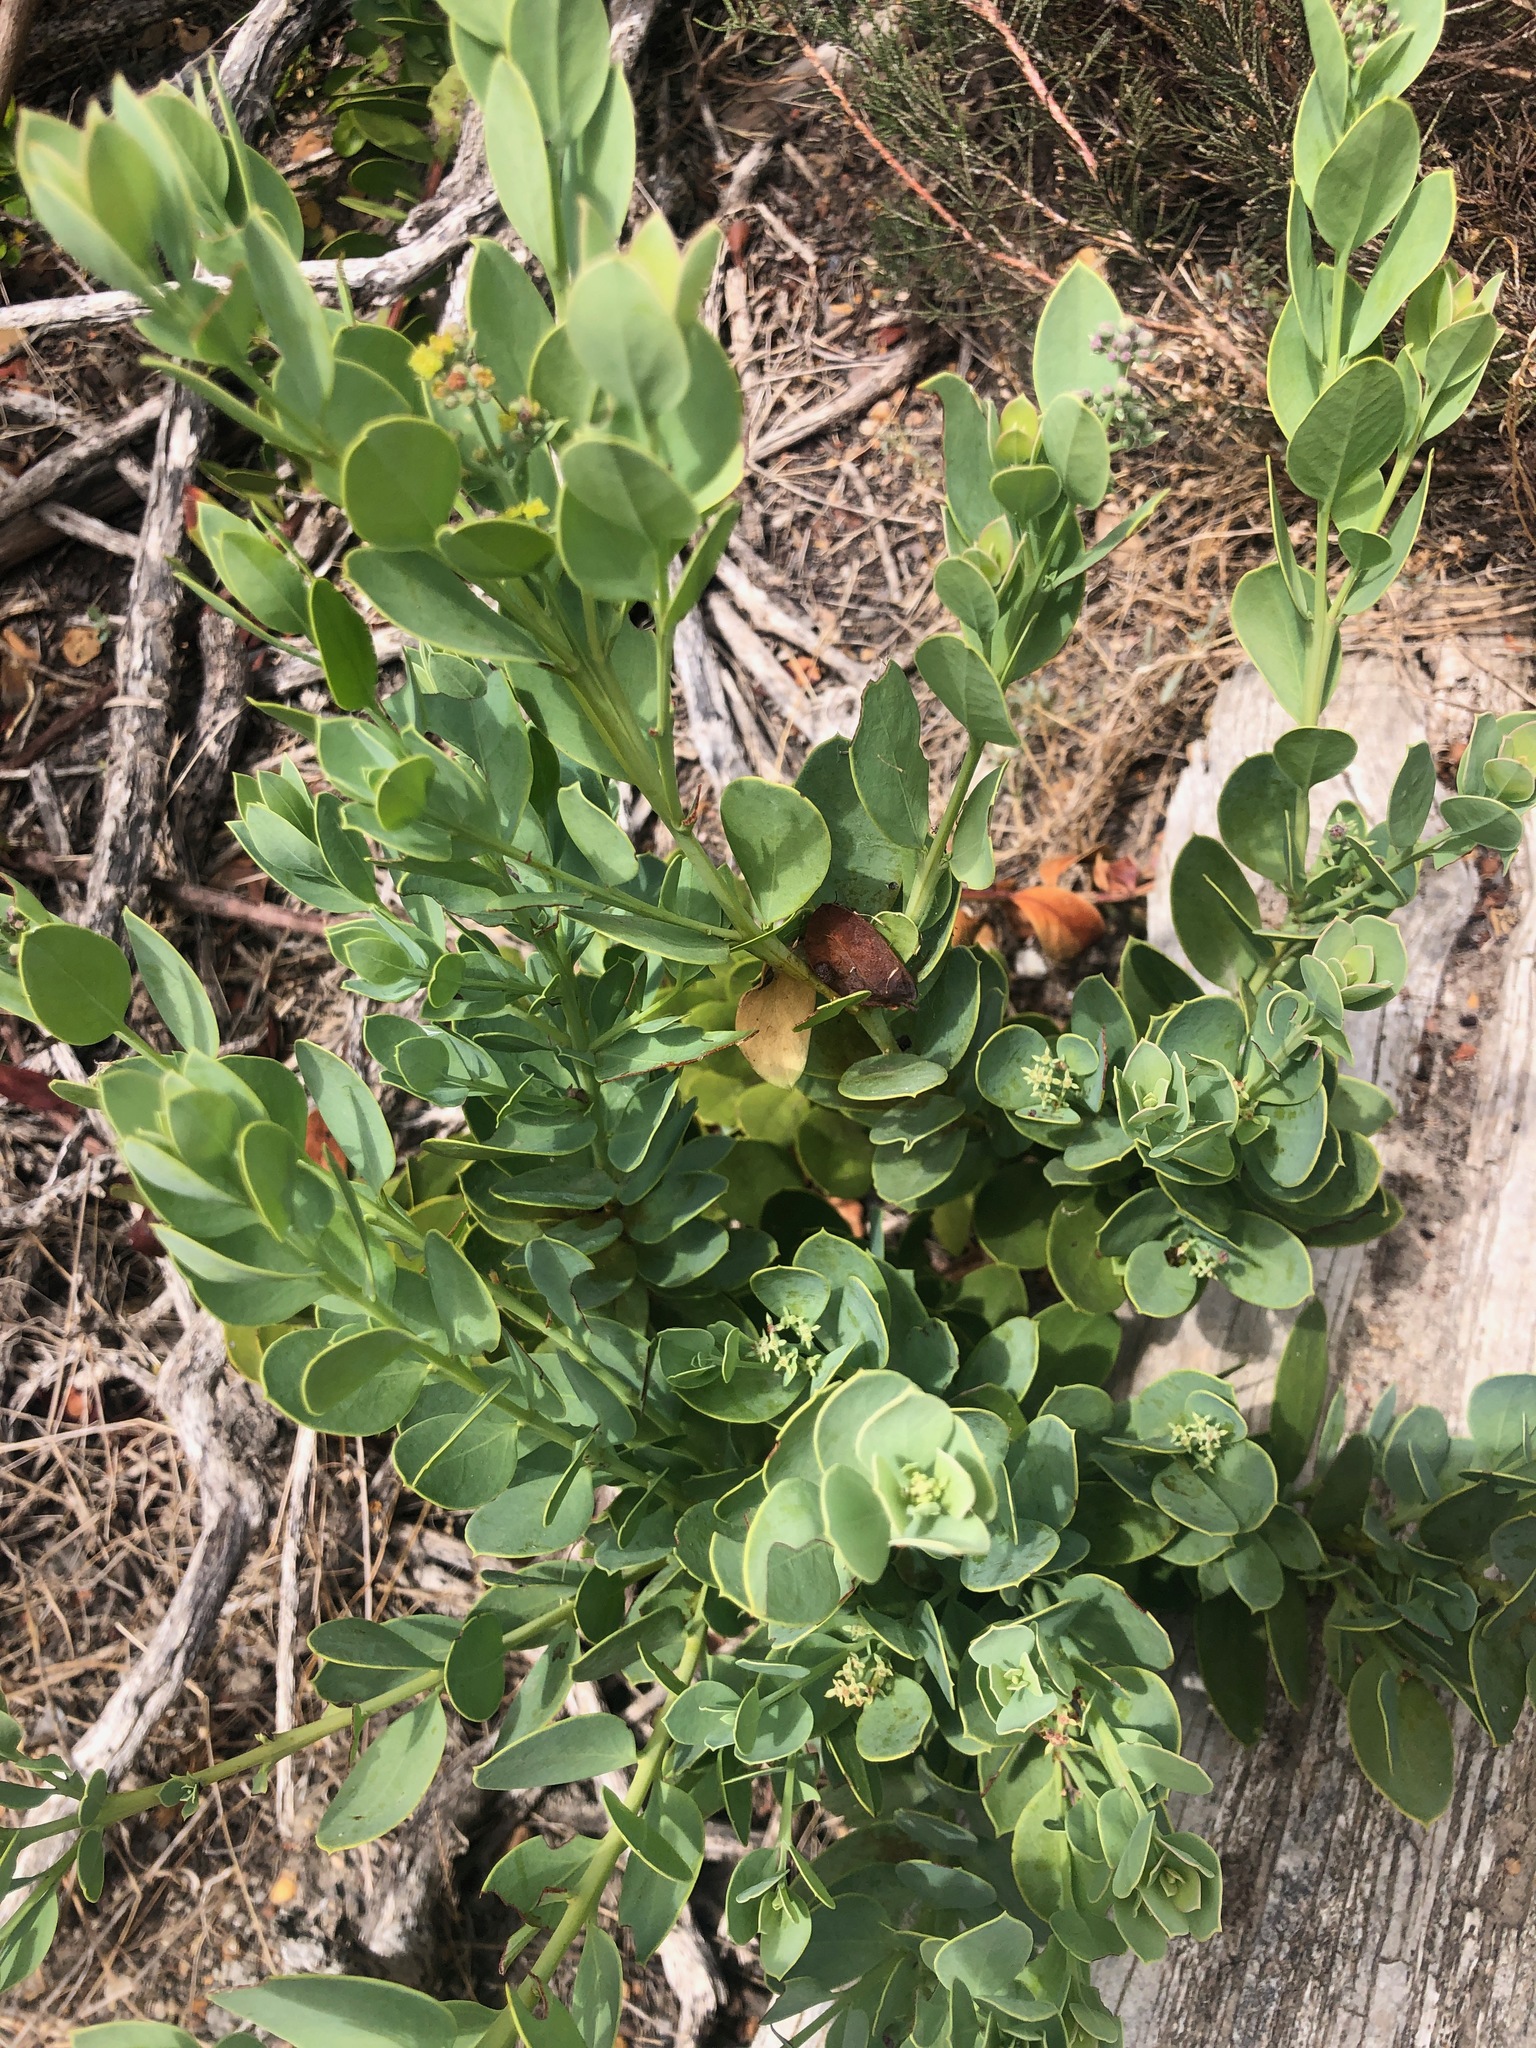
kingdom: Plantae
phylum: Tracheophyta
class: Magnoliopsida
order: Santalales
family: Santalaceae
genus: Osyris
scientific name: Osyris compressa
